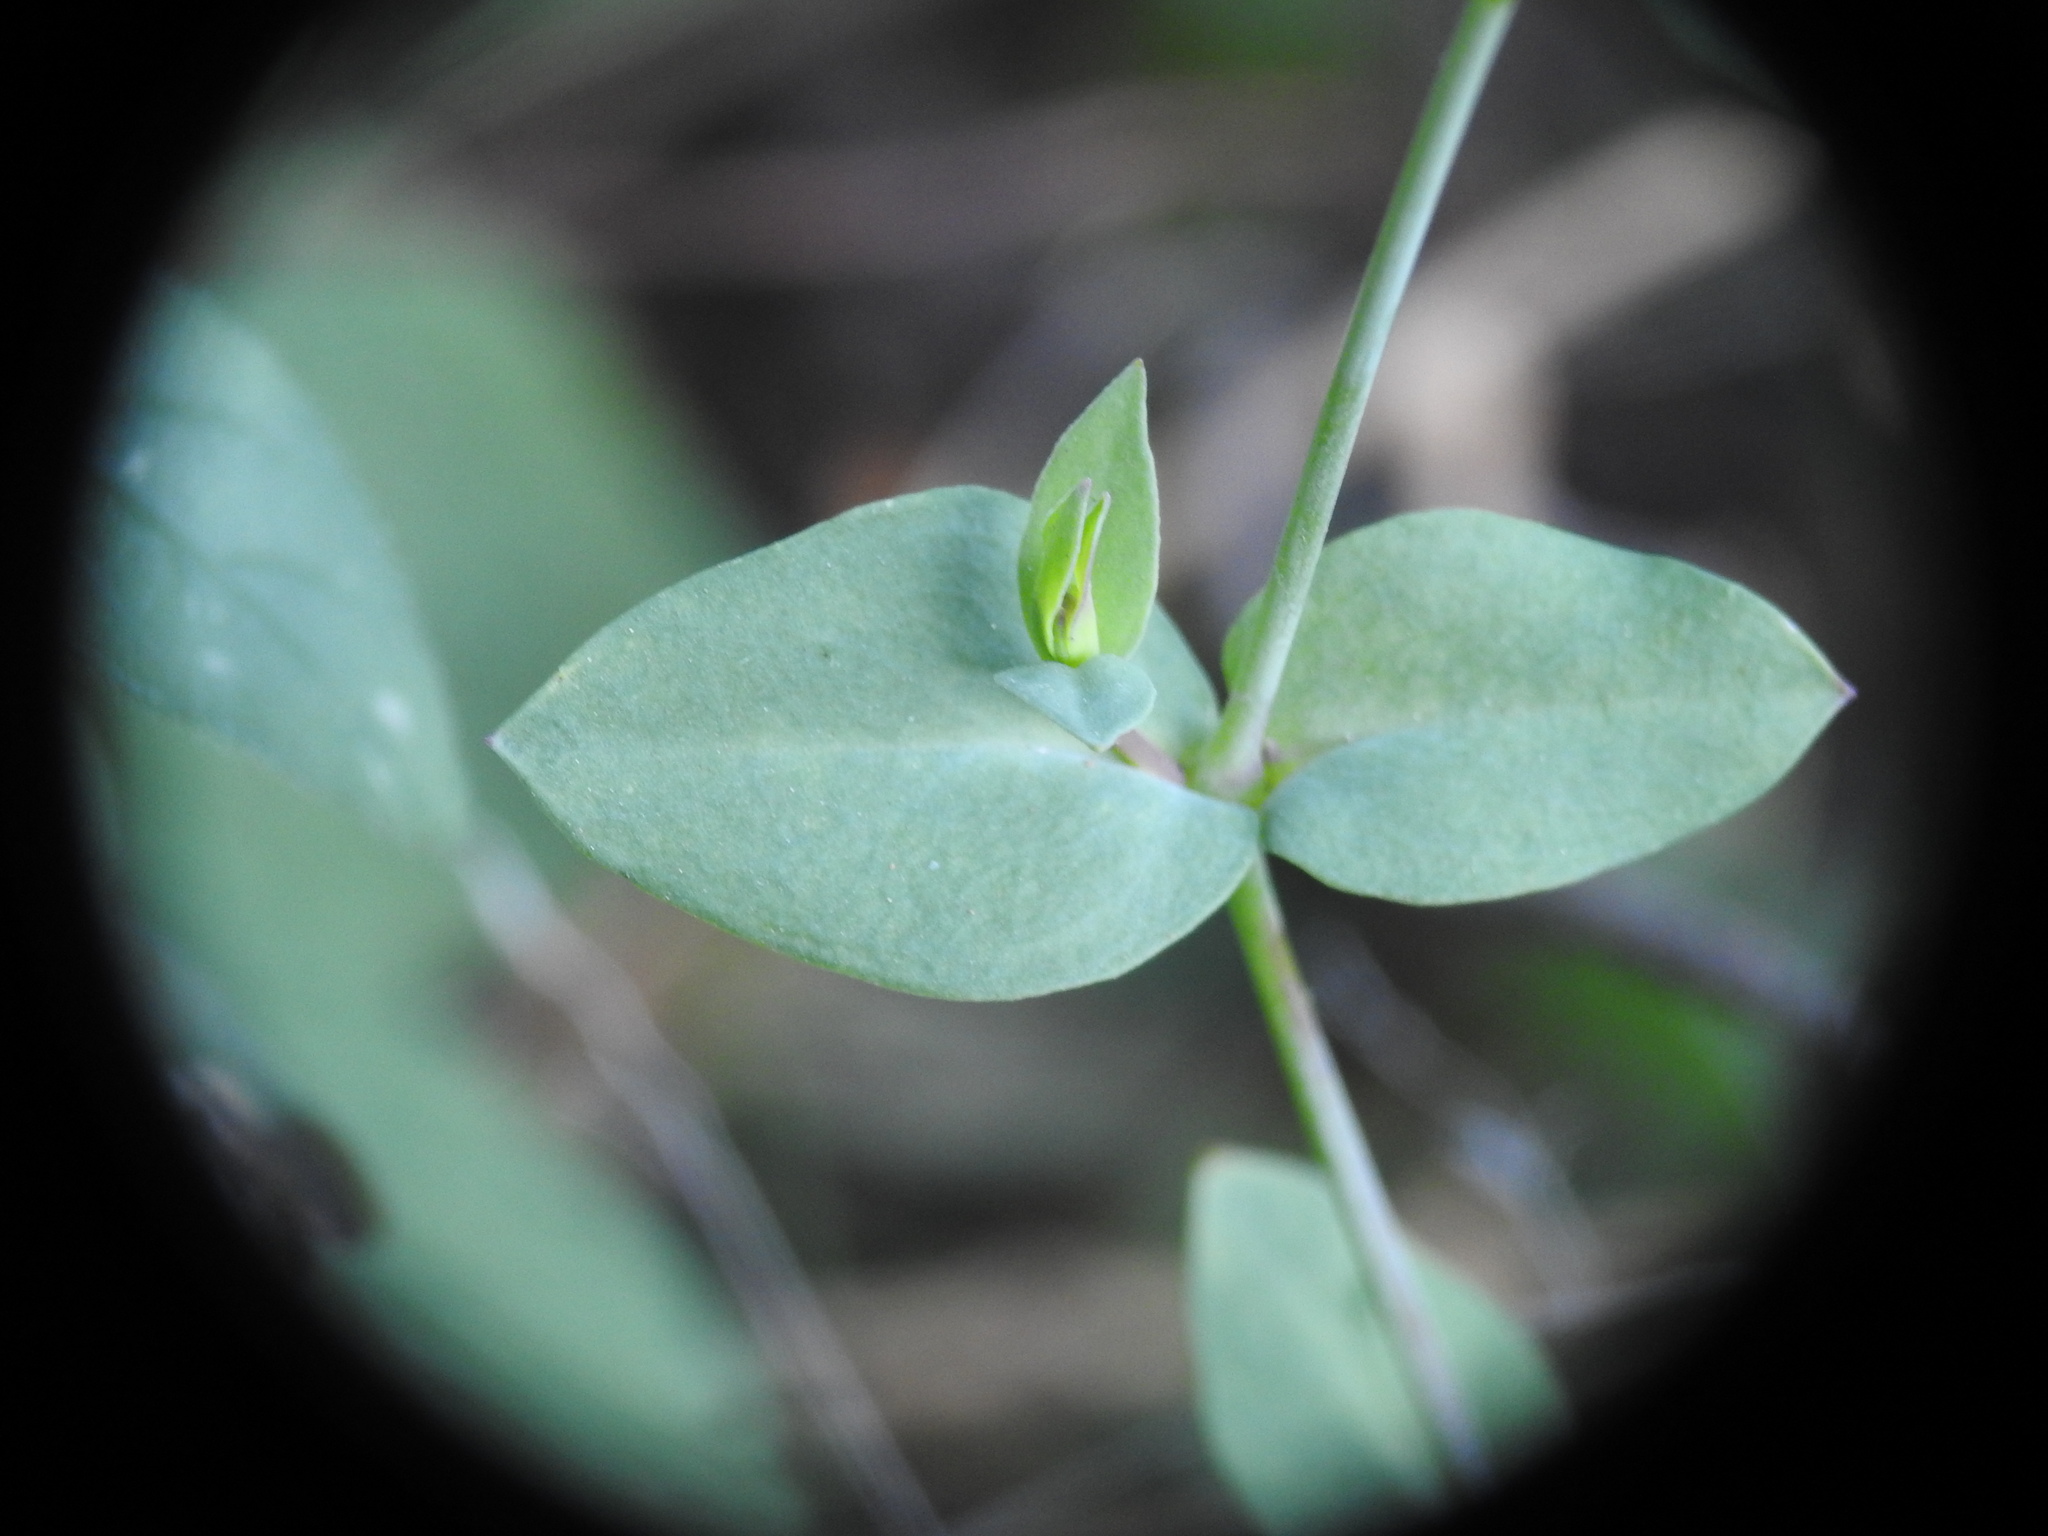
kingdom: Plantae
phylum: Tracheophyta
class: Magnoliopsida
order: Caryophyllales
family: Caryophyllaceae
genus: Atocion
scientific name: Atocion armeria
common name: Sweet william catchfly
